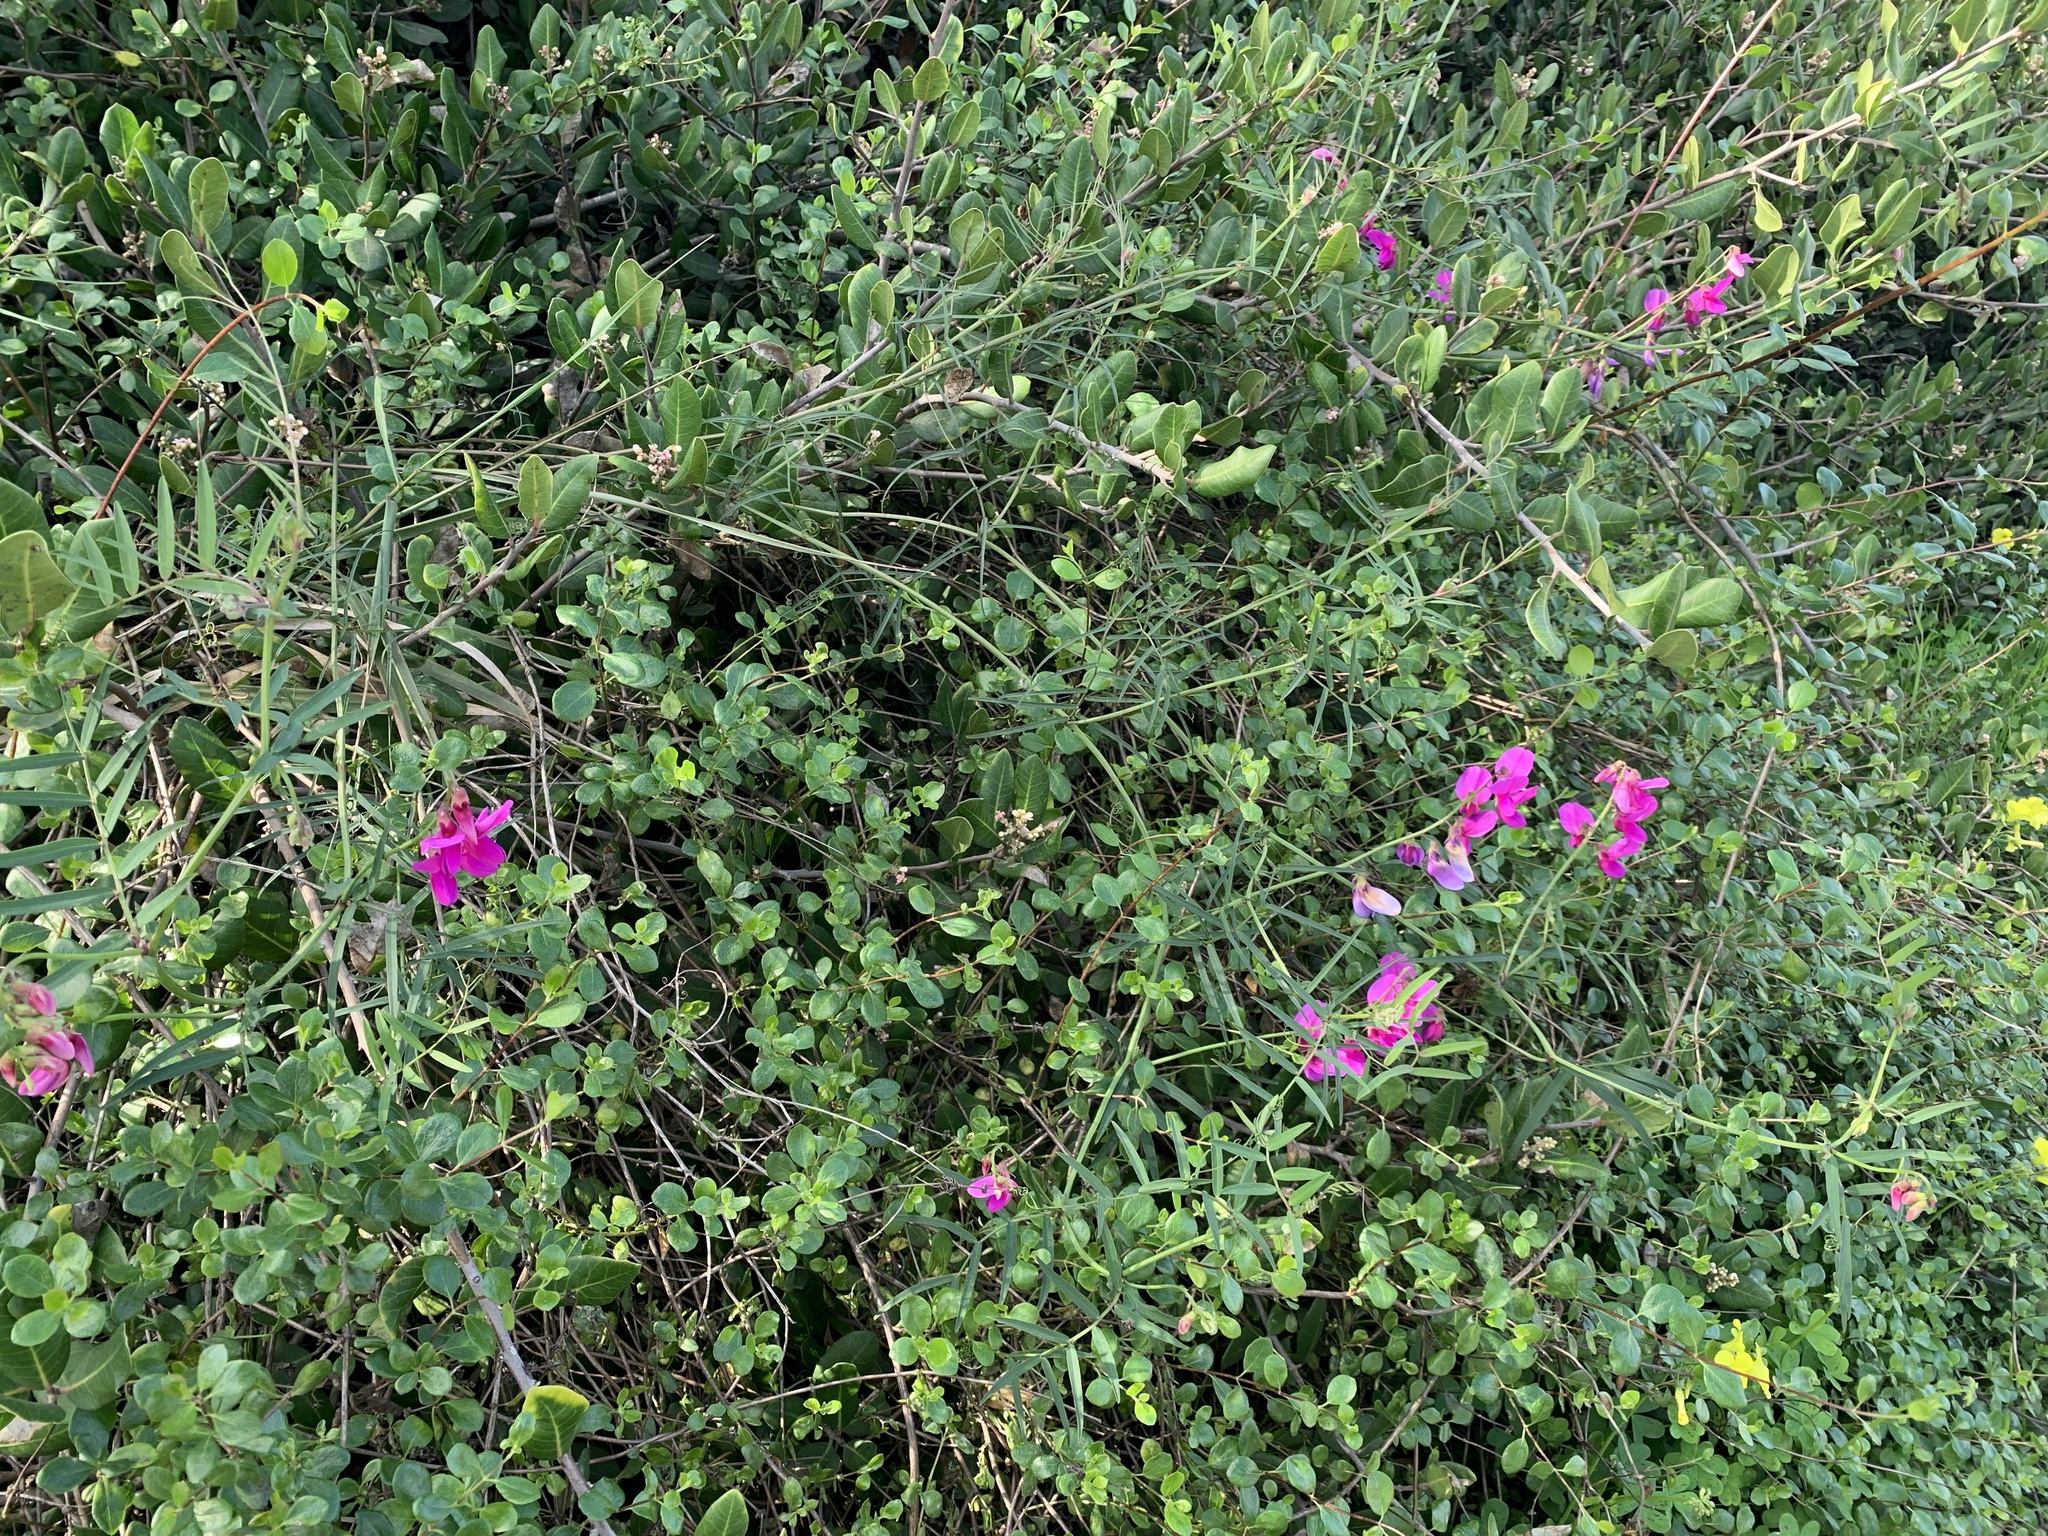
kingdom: Plantae
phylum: Tracheophyta
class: Magnoliopsida
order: Fabales
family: Fabaceae
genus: Lathyrus
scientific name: Lathyrus vestitus
